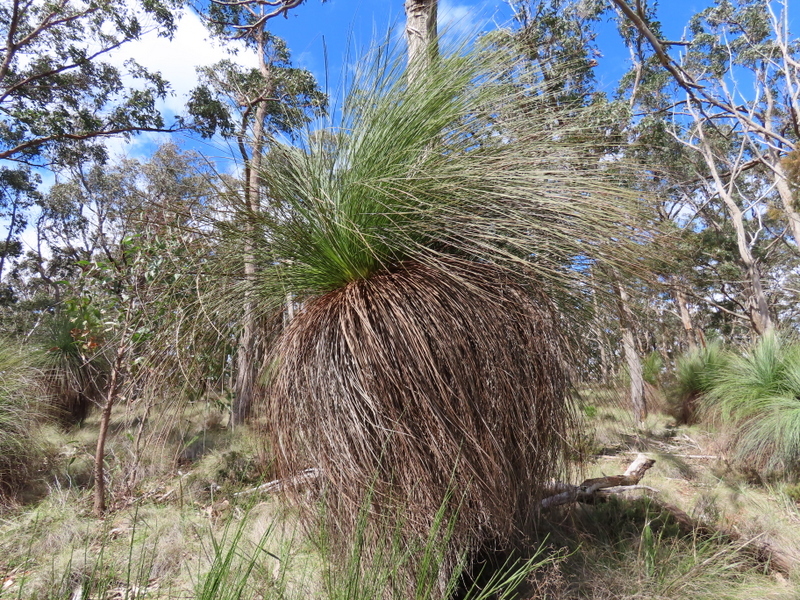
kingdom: Plantae
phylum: Tracheophyta
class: Liliopsida
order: Asparagales
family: Asphodelaceae
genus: Xanthorrhoea
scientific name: Xanthorrhoea australis
